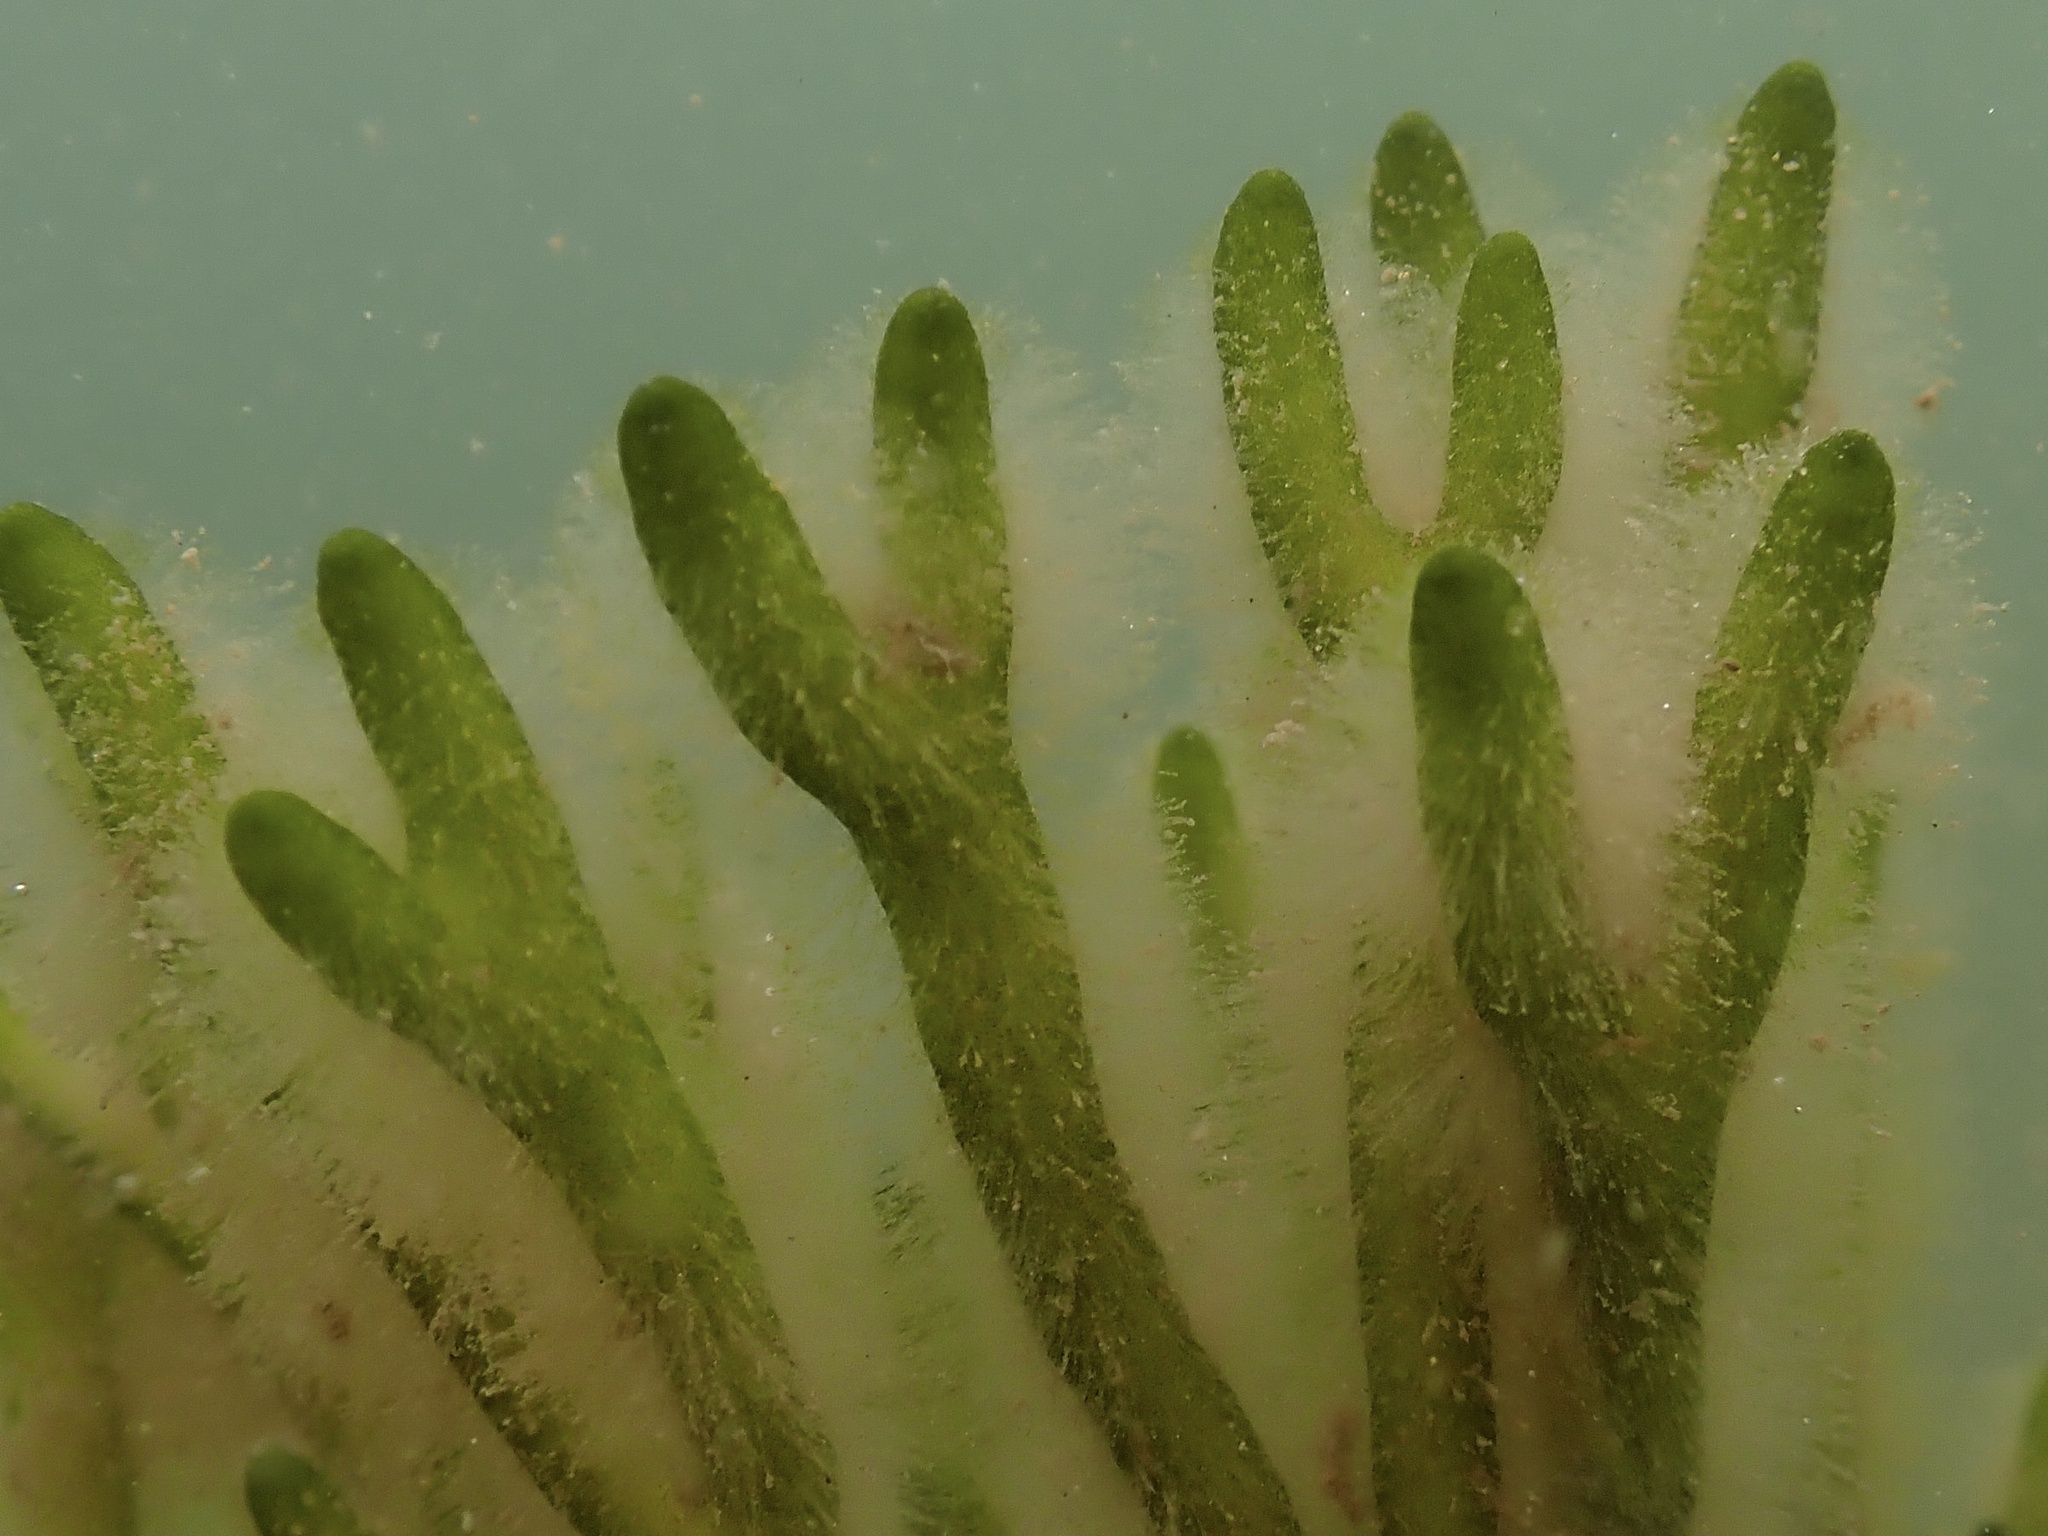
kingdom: Plantae
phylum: Chlorophyta
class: Ulvophyceae
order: Bryopsidales
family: Codiaceae
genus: Codium
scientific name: Codium fragile
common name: Dead man's fingers
